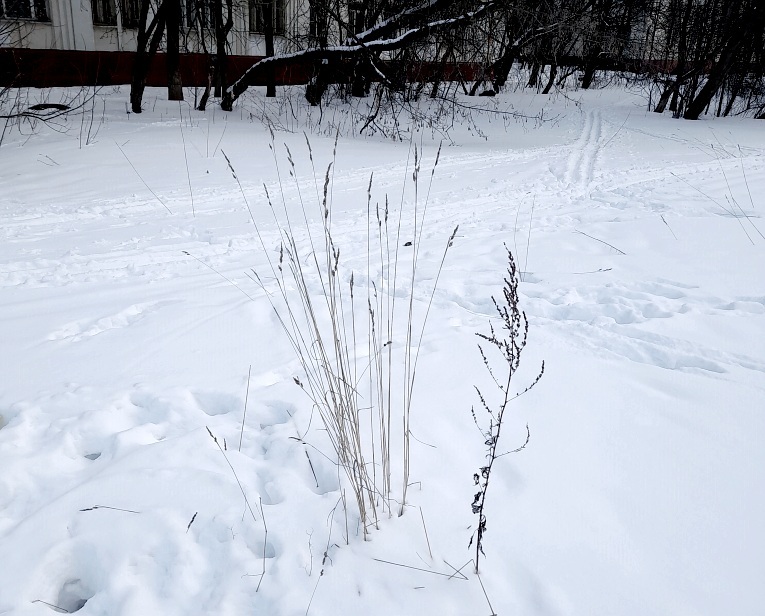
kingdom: Plantae
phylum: Tracheophyta
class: Liliopsida
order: Poales
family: Poaceae
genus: Dactylis
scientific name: Dactylis glomerata
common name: Orchardgrass
